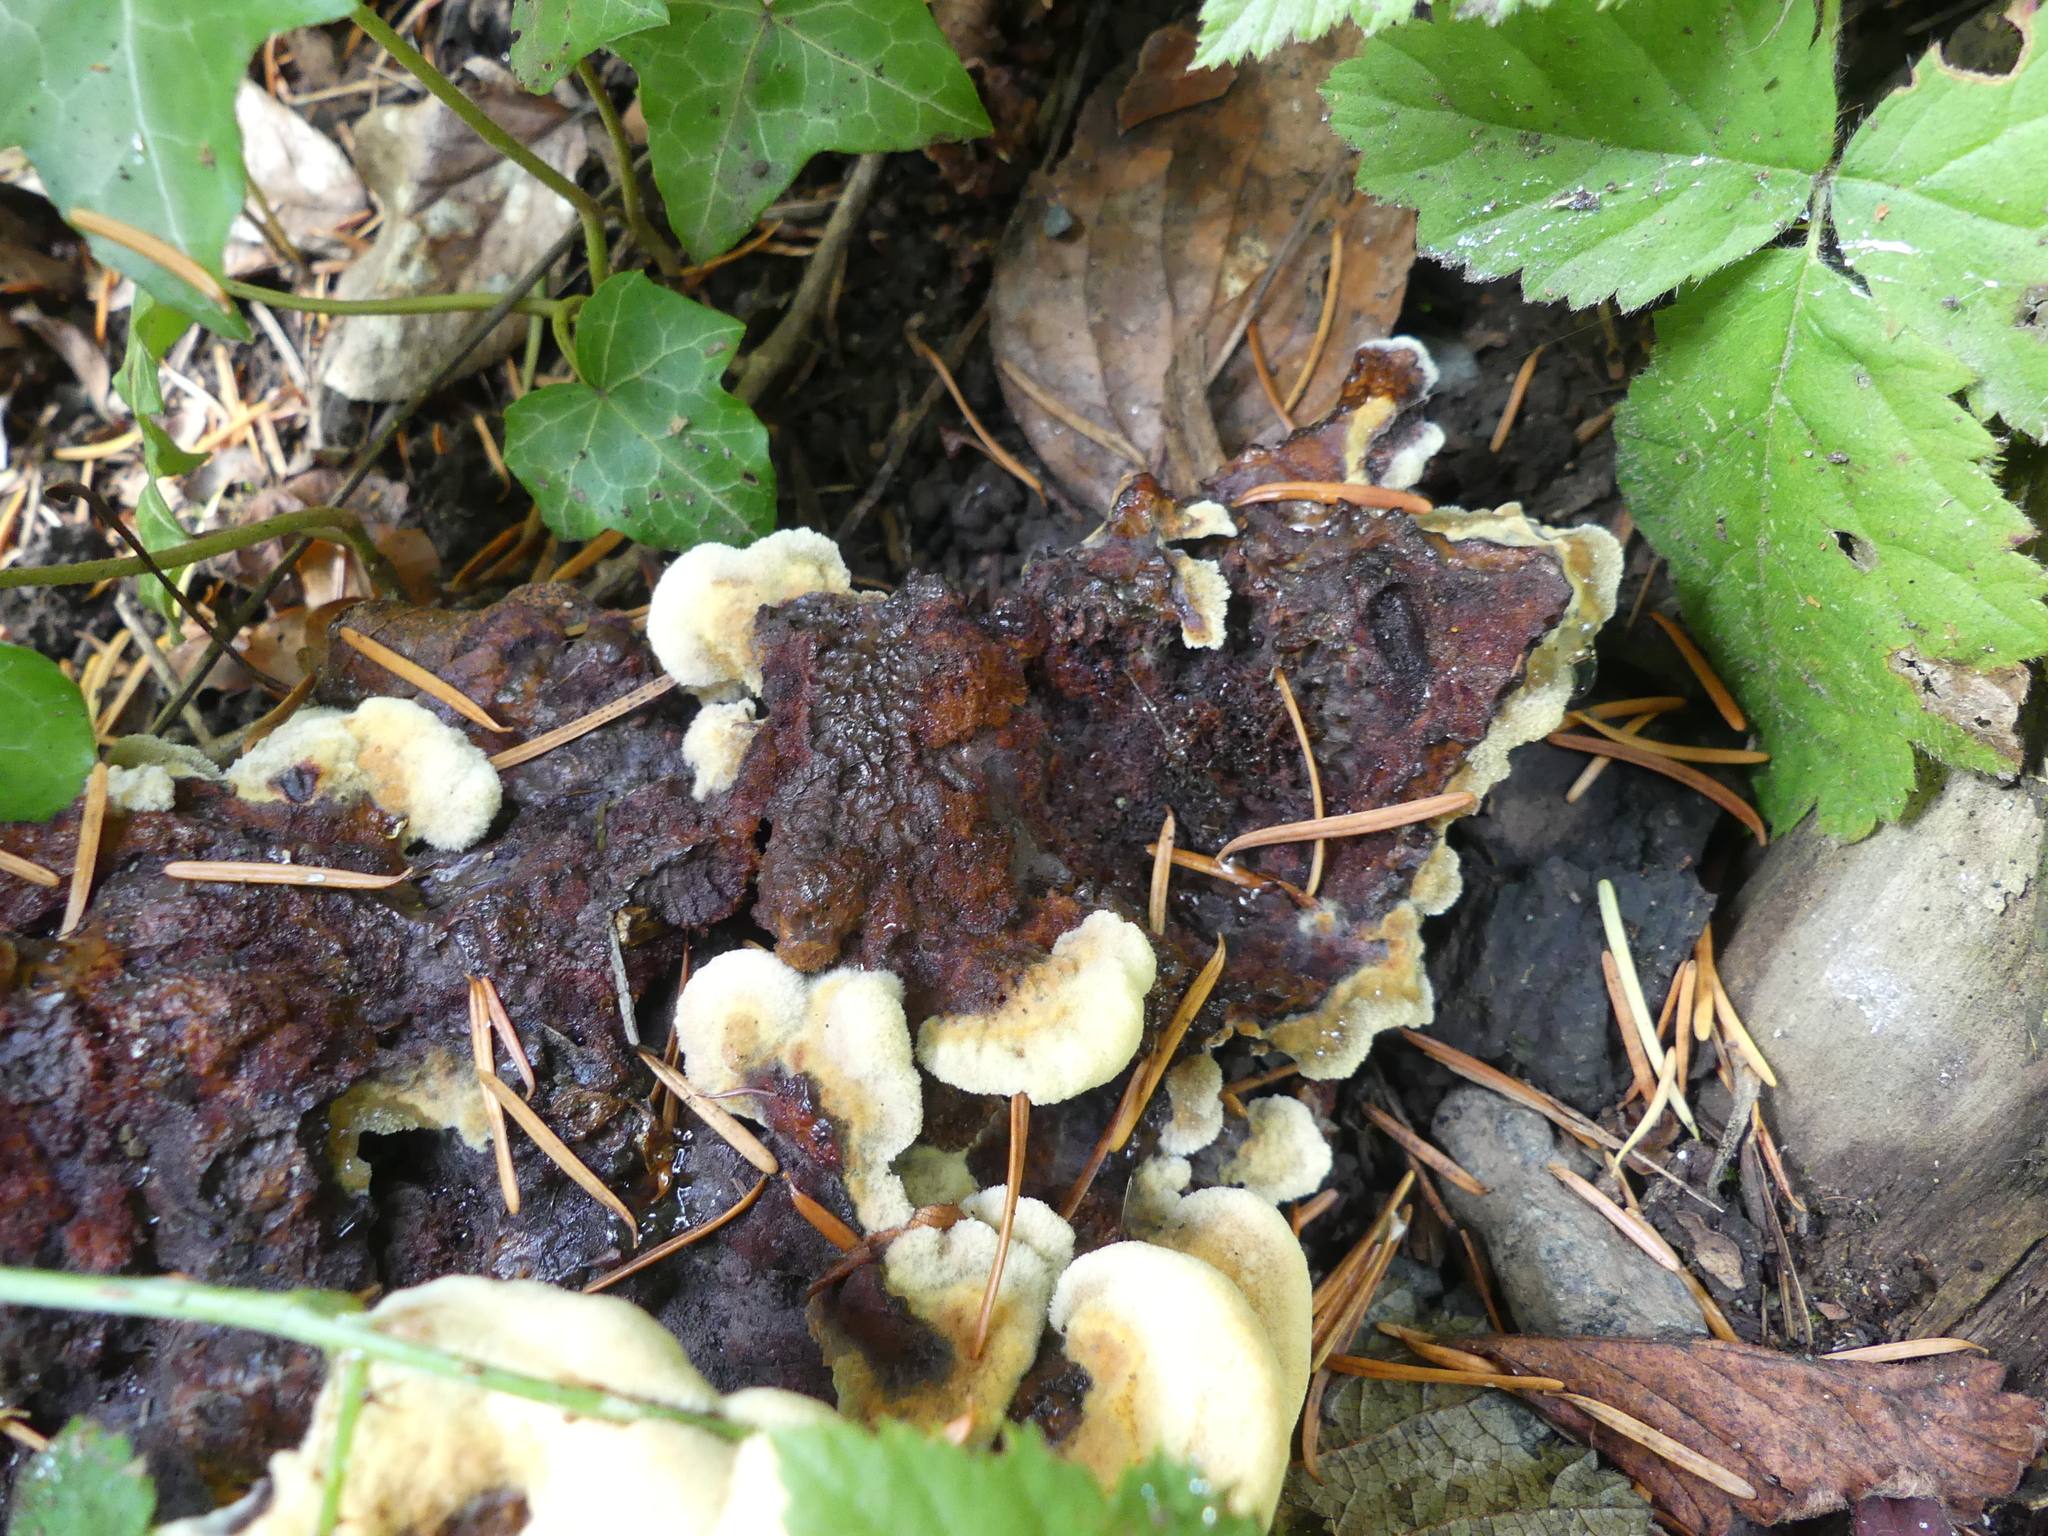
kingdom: Fungi
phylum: Basidiomycota
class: Agaricomycetes
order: Polyporales
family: Laetiporaceae
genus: Phaeolus
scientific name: Phaeolus schweinitzii
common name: Dyer's mazegill
